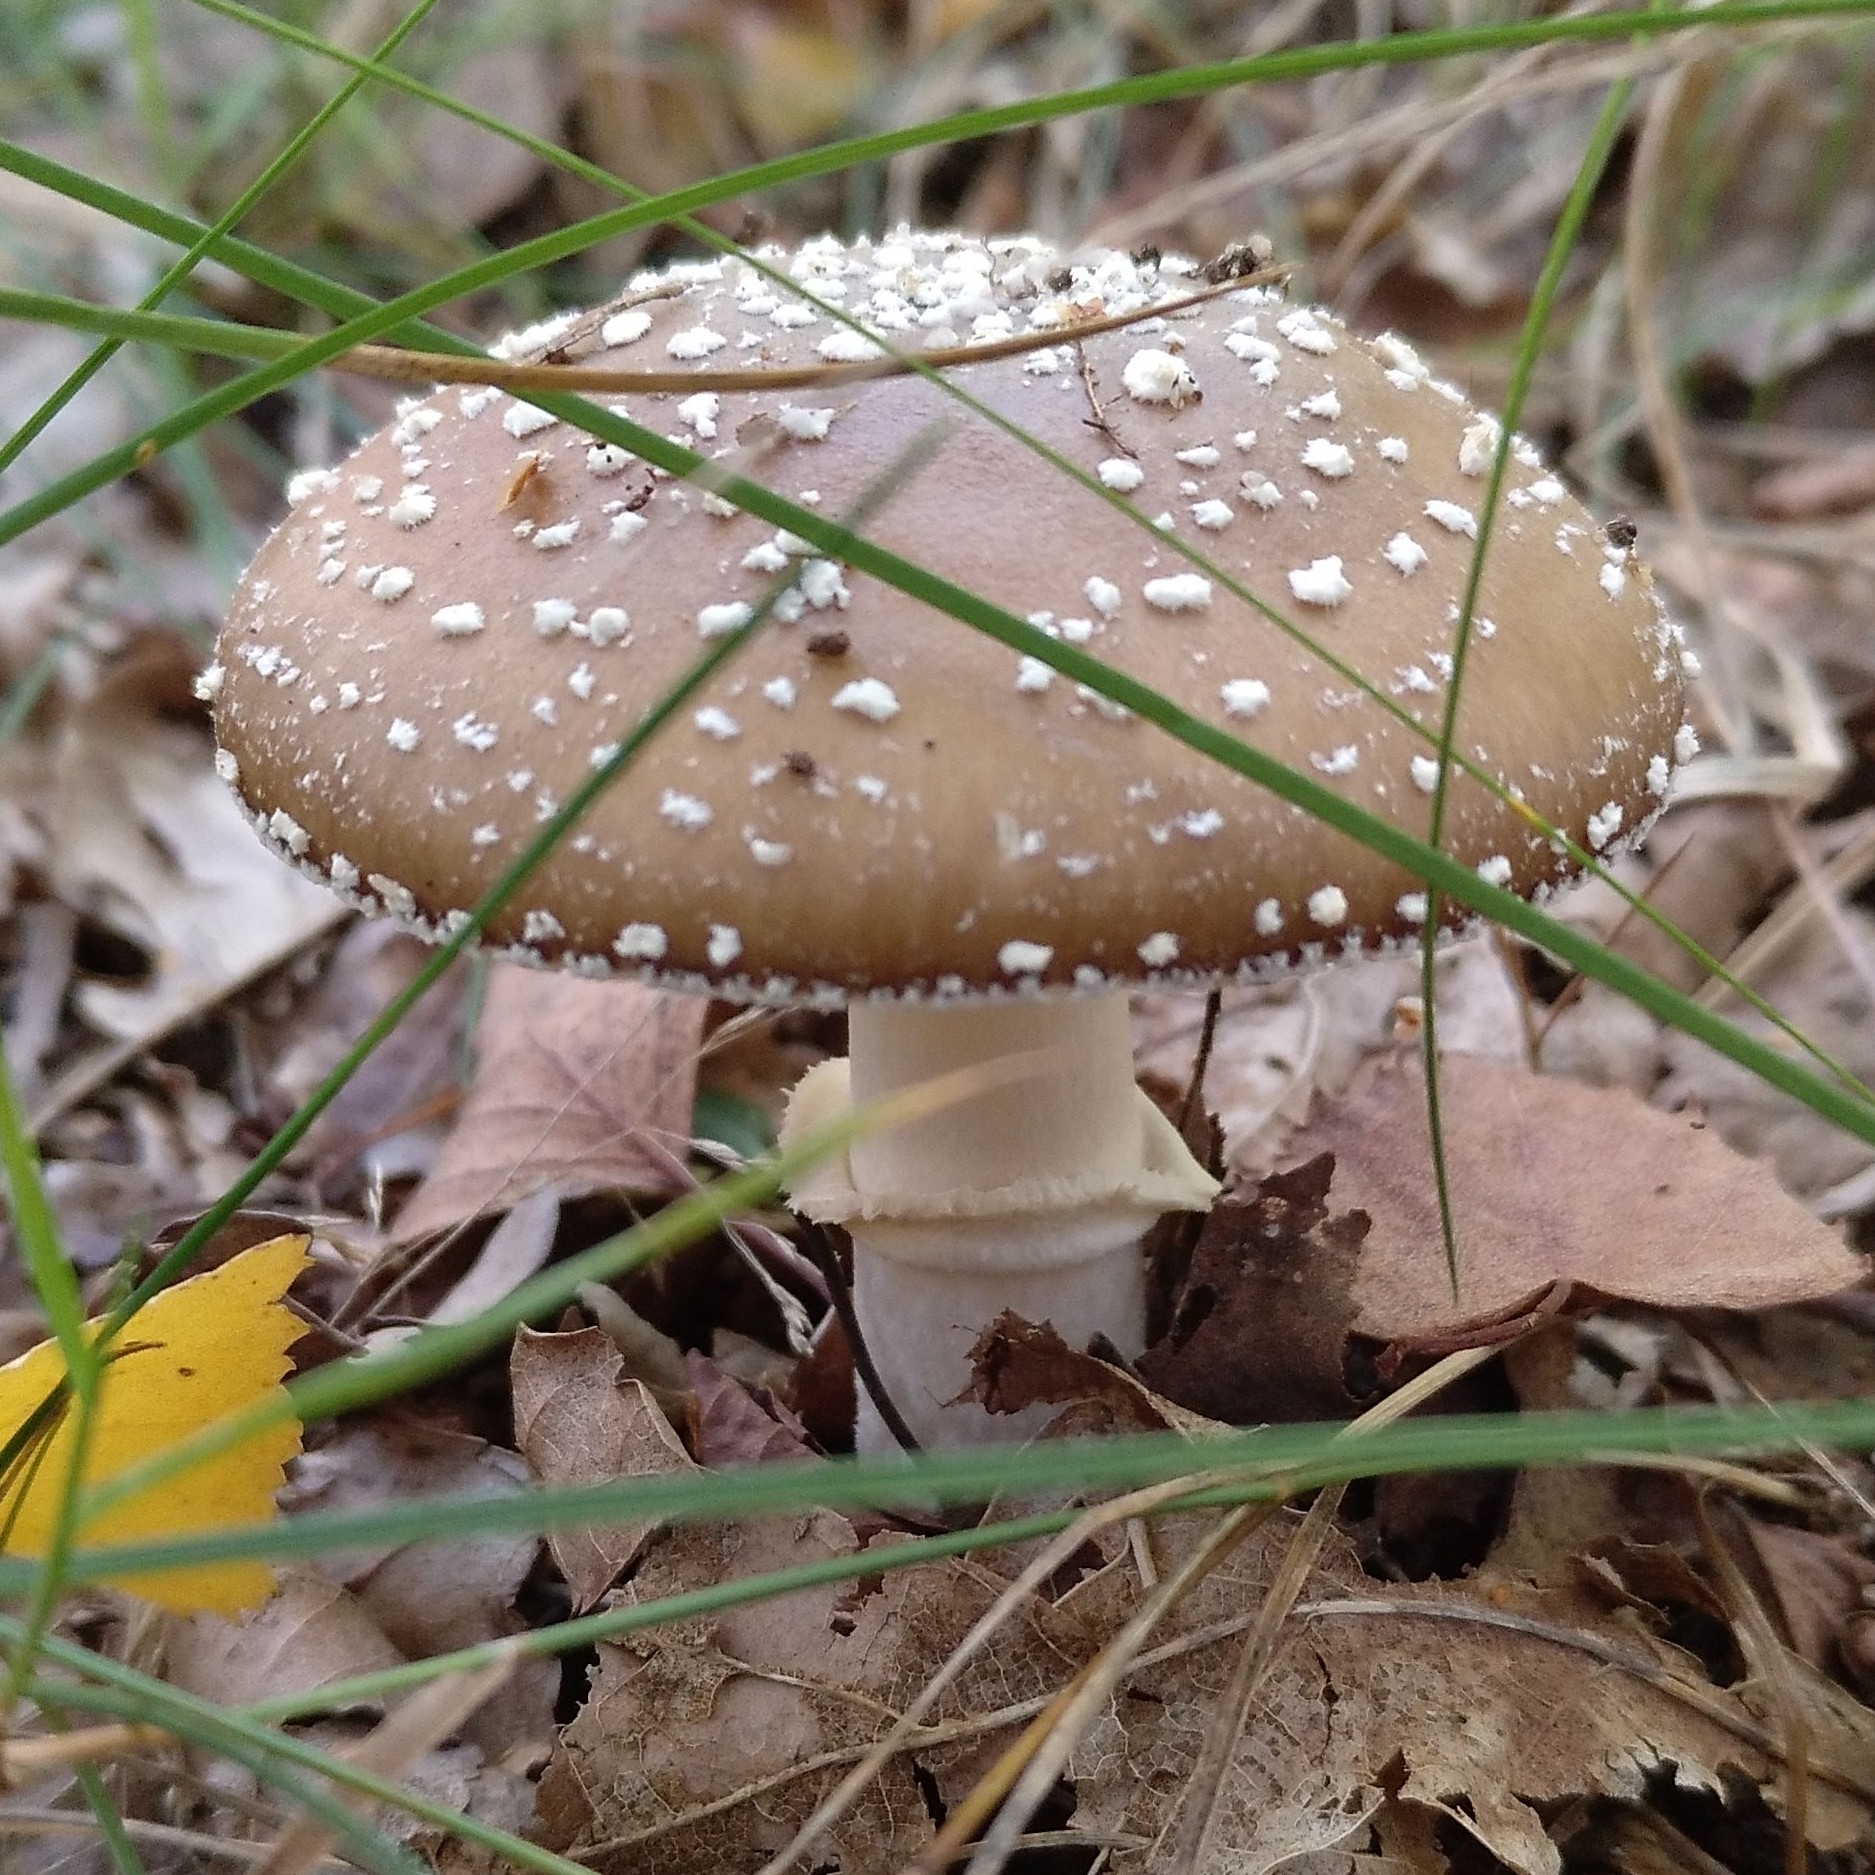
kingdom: Fungi
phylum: Basidiomycota
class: Agaricomycetes
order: Agaricales
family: Amanitaceae
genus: Amanita
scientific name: Amanita pantherina
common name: Panthercap
